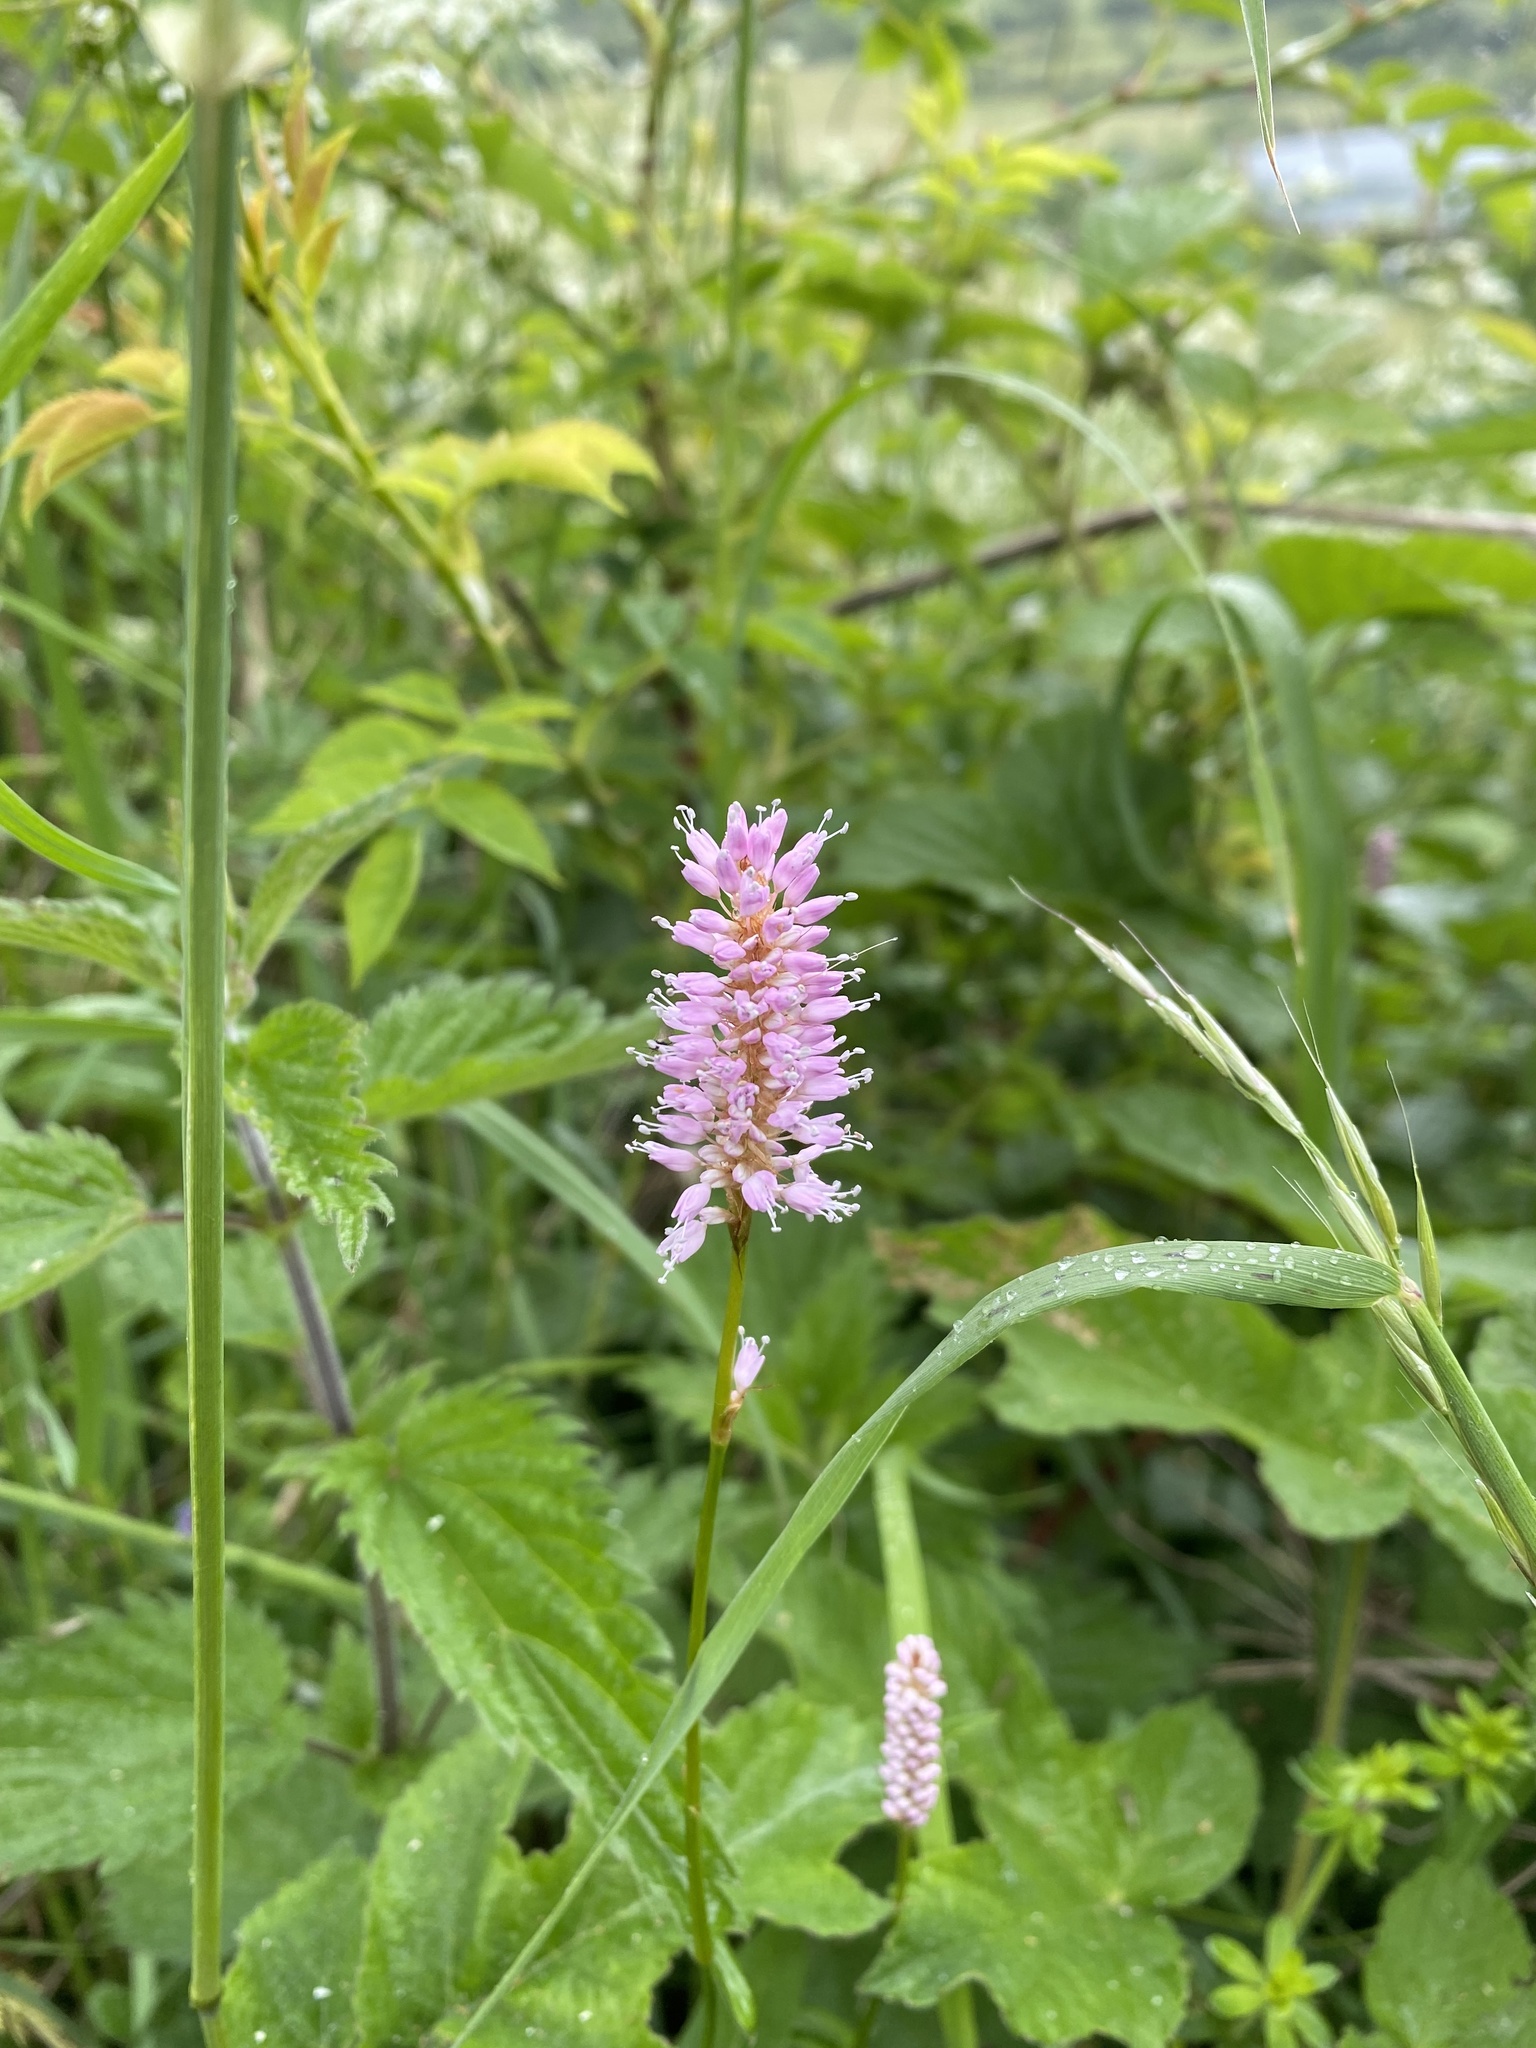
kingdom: Plantae
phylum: Tracheophyta
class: Magnoliopsida
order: Caryophyllales
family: Polygonaceae
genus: Bistorta
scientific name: Bistorta officinalis
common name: Common bistort
